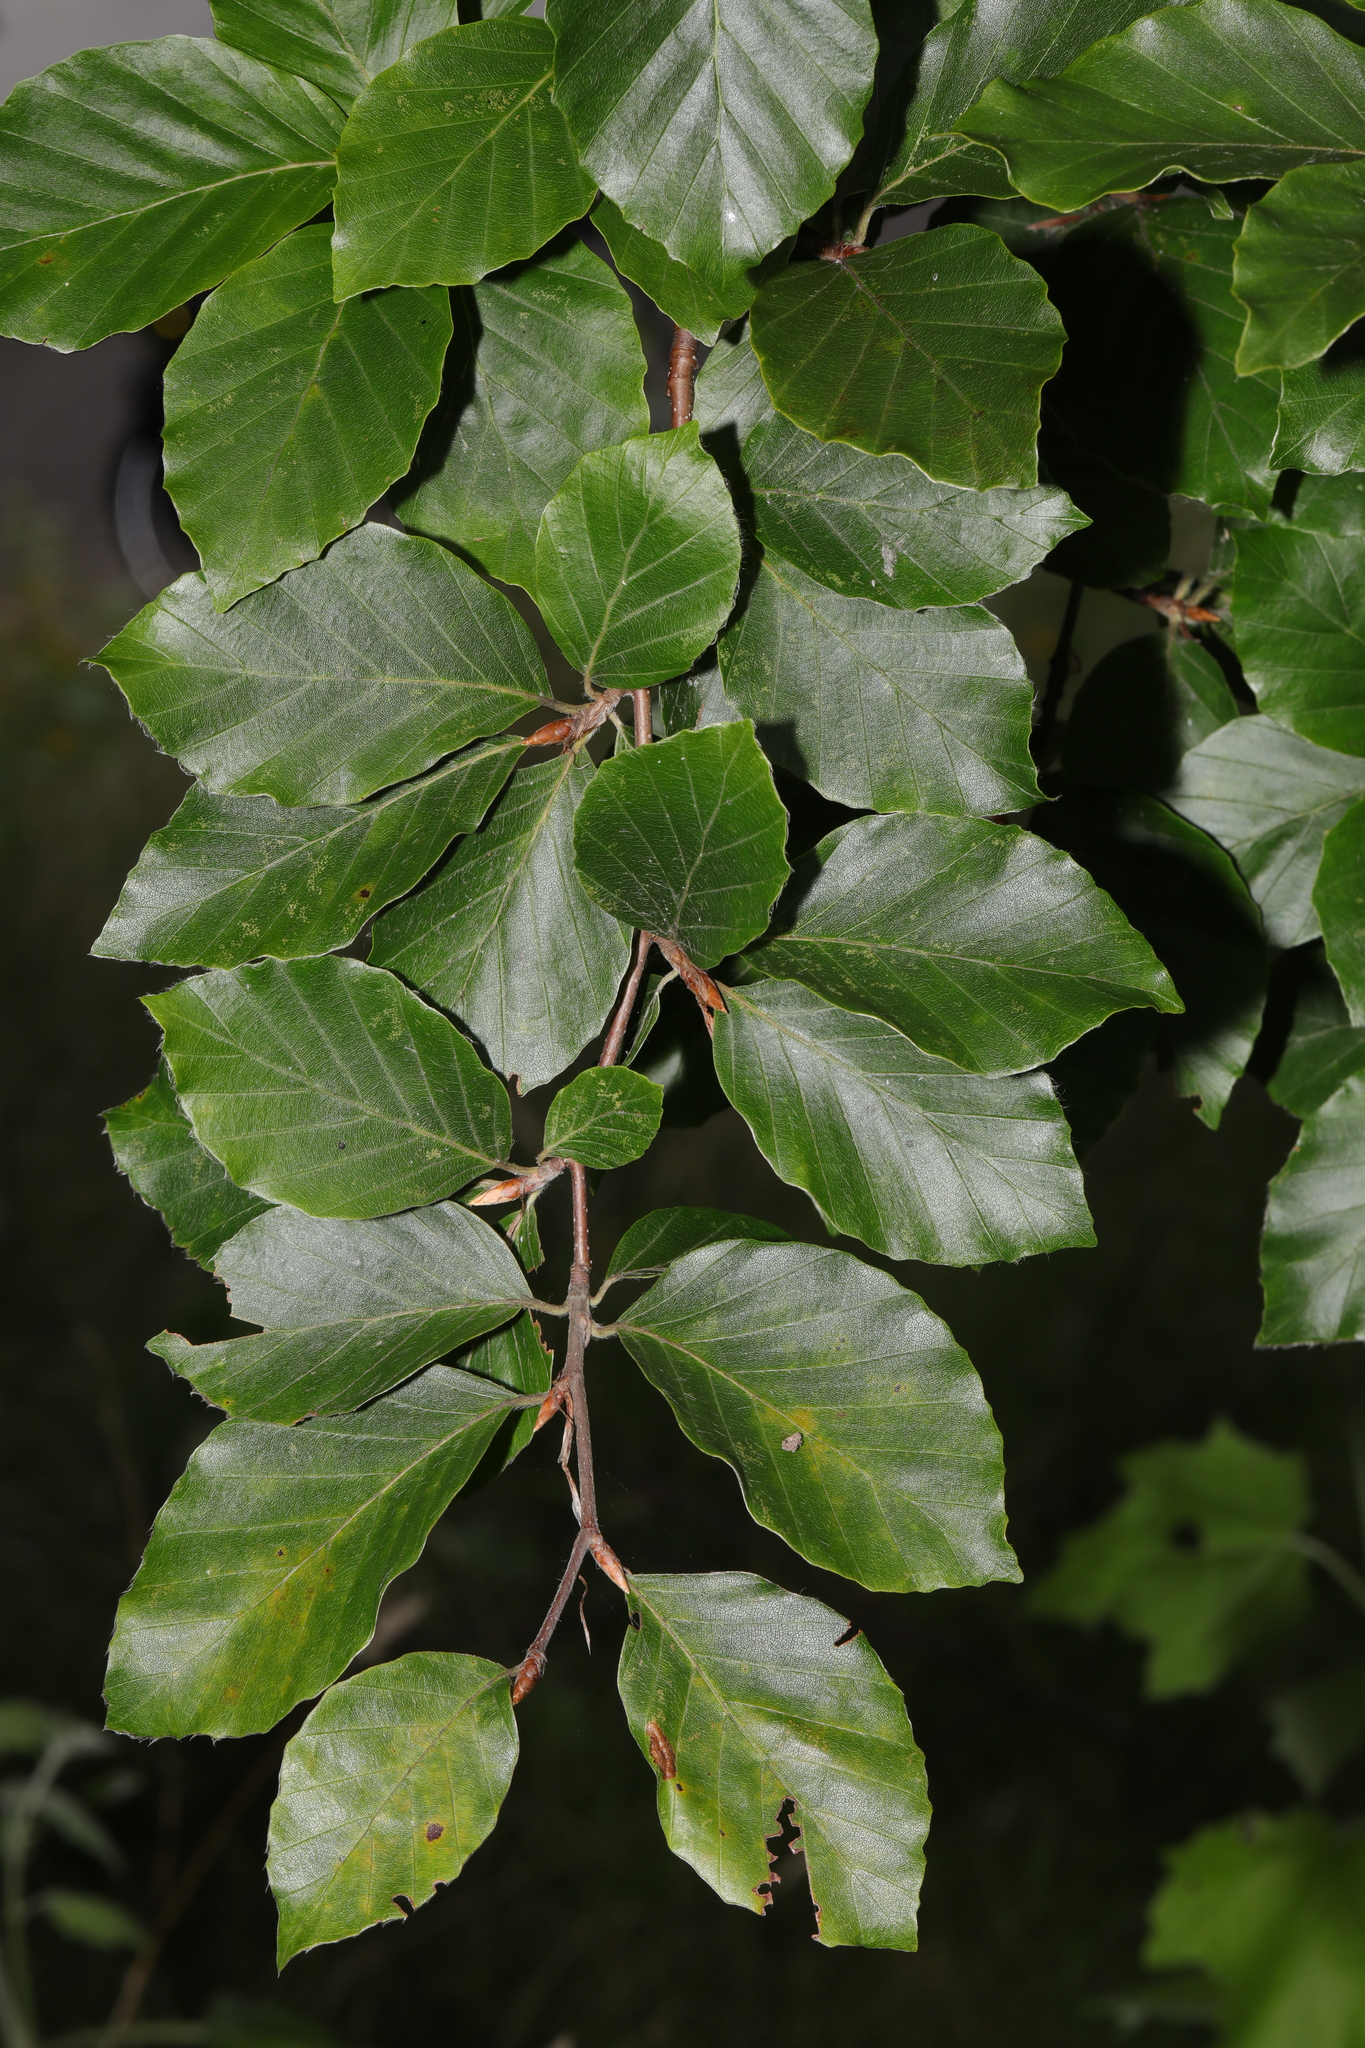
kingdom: Plantae
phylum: Tracheophyta
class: Magnoliopsida
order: Fagales
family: Fagaceae
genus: Fagus
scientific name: Fagus sylvatica
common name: Beech
